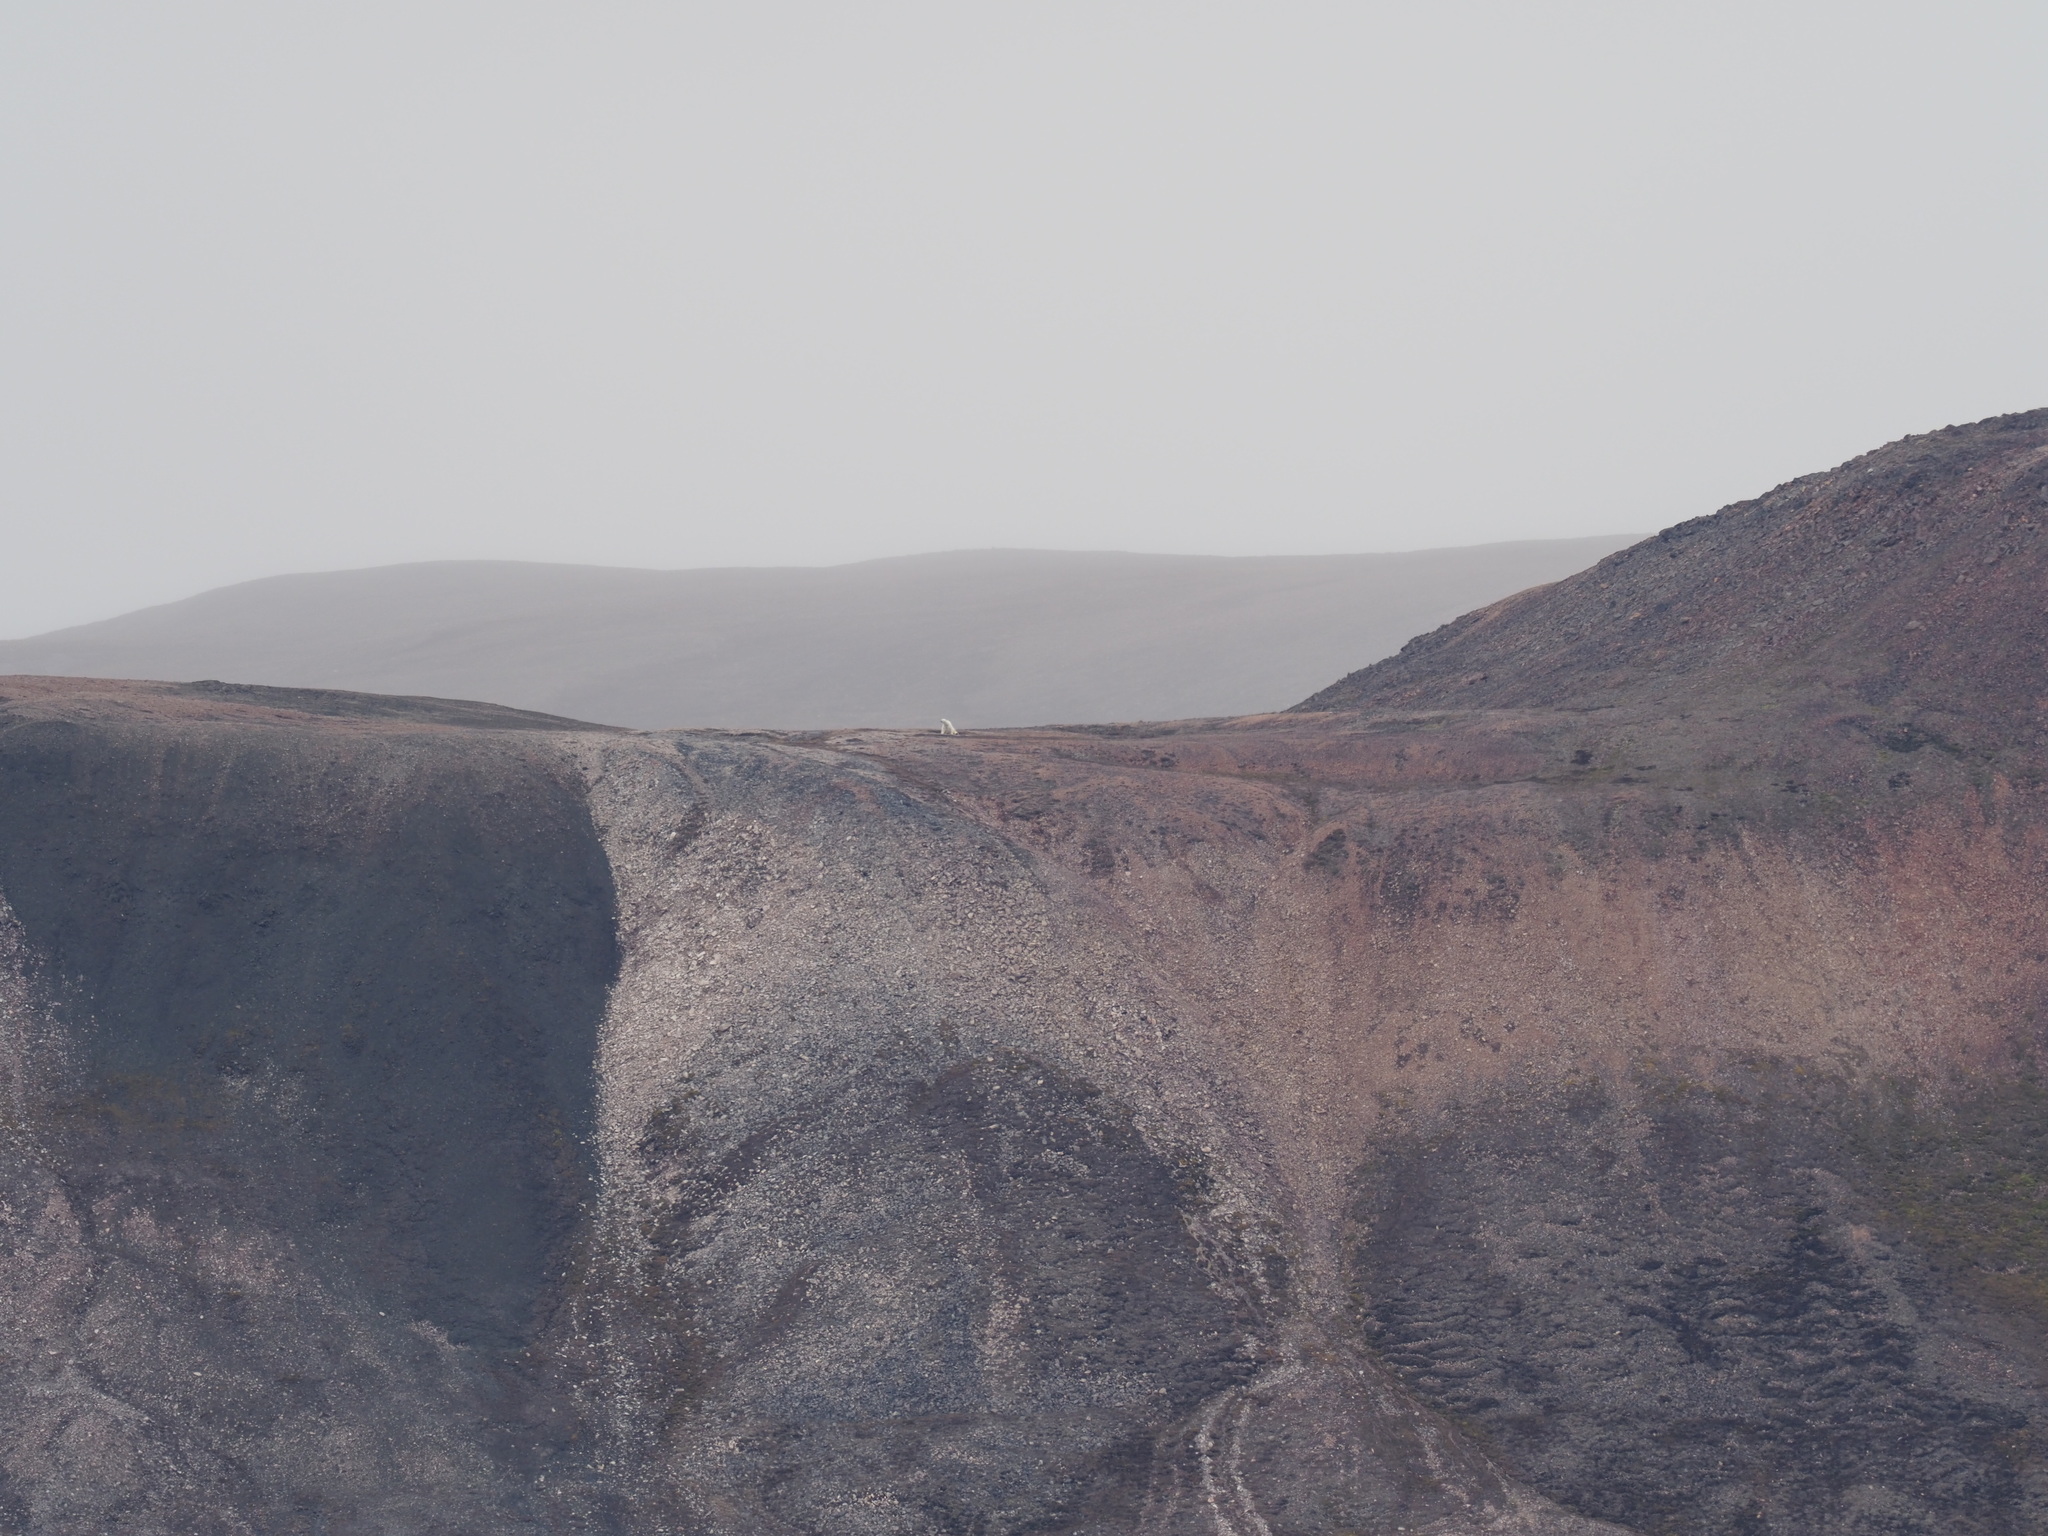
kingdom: Animalia
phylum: Chordata
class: Mammalia
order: Carnivora
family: Ursidae
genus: Ursus
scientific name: Ursus maritimus
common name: Polar bear
